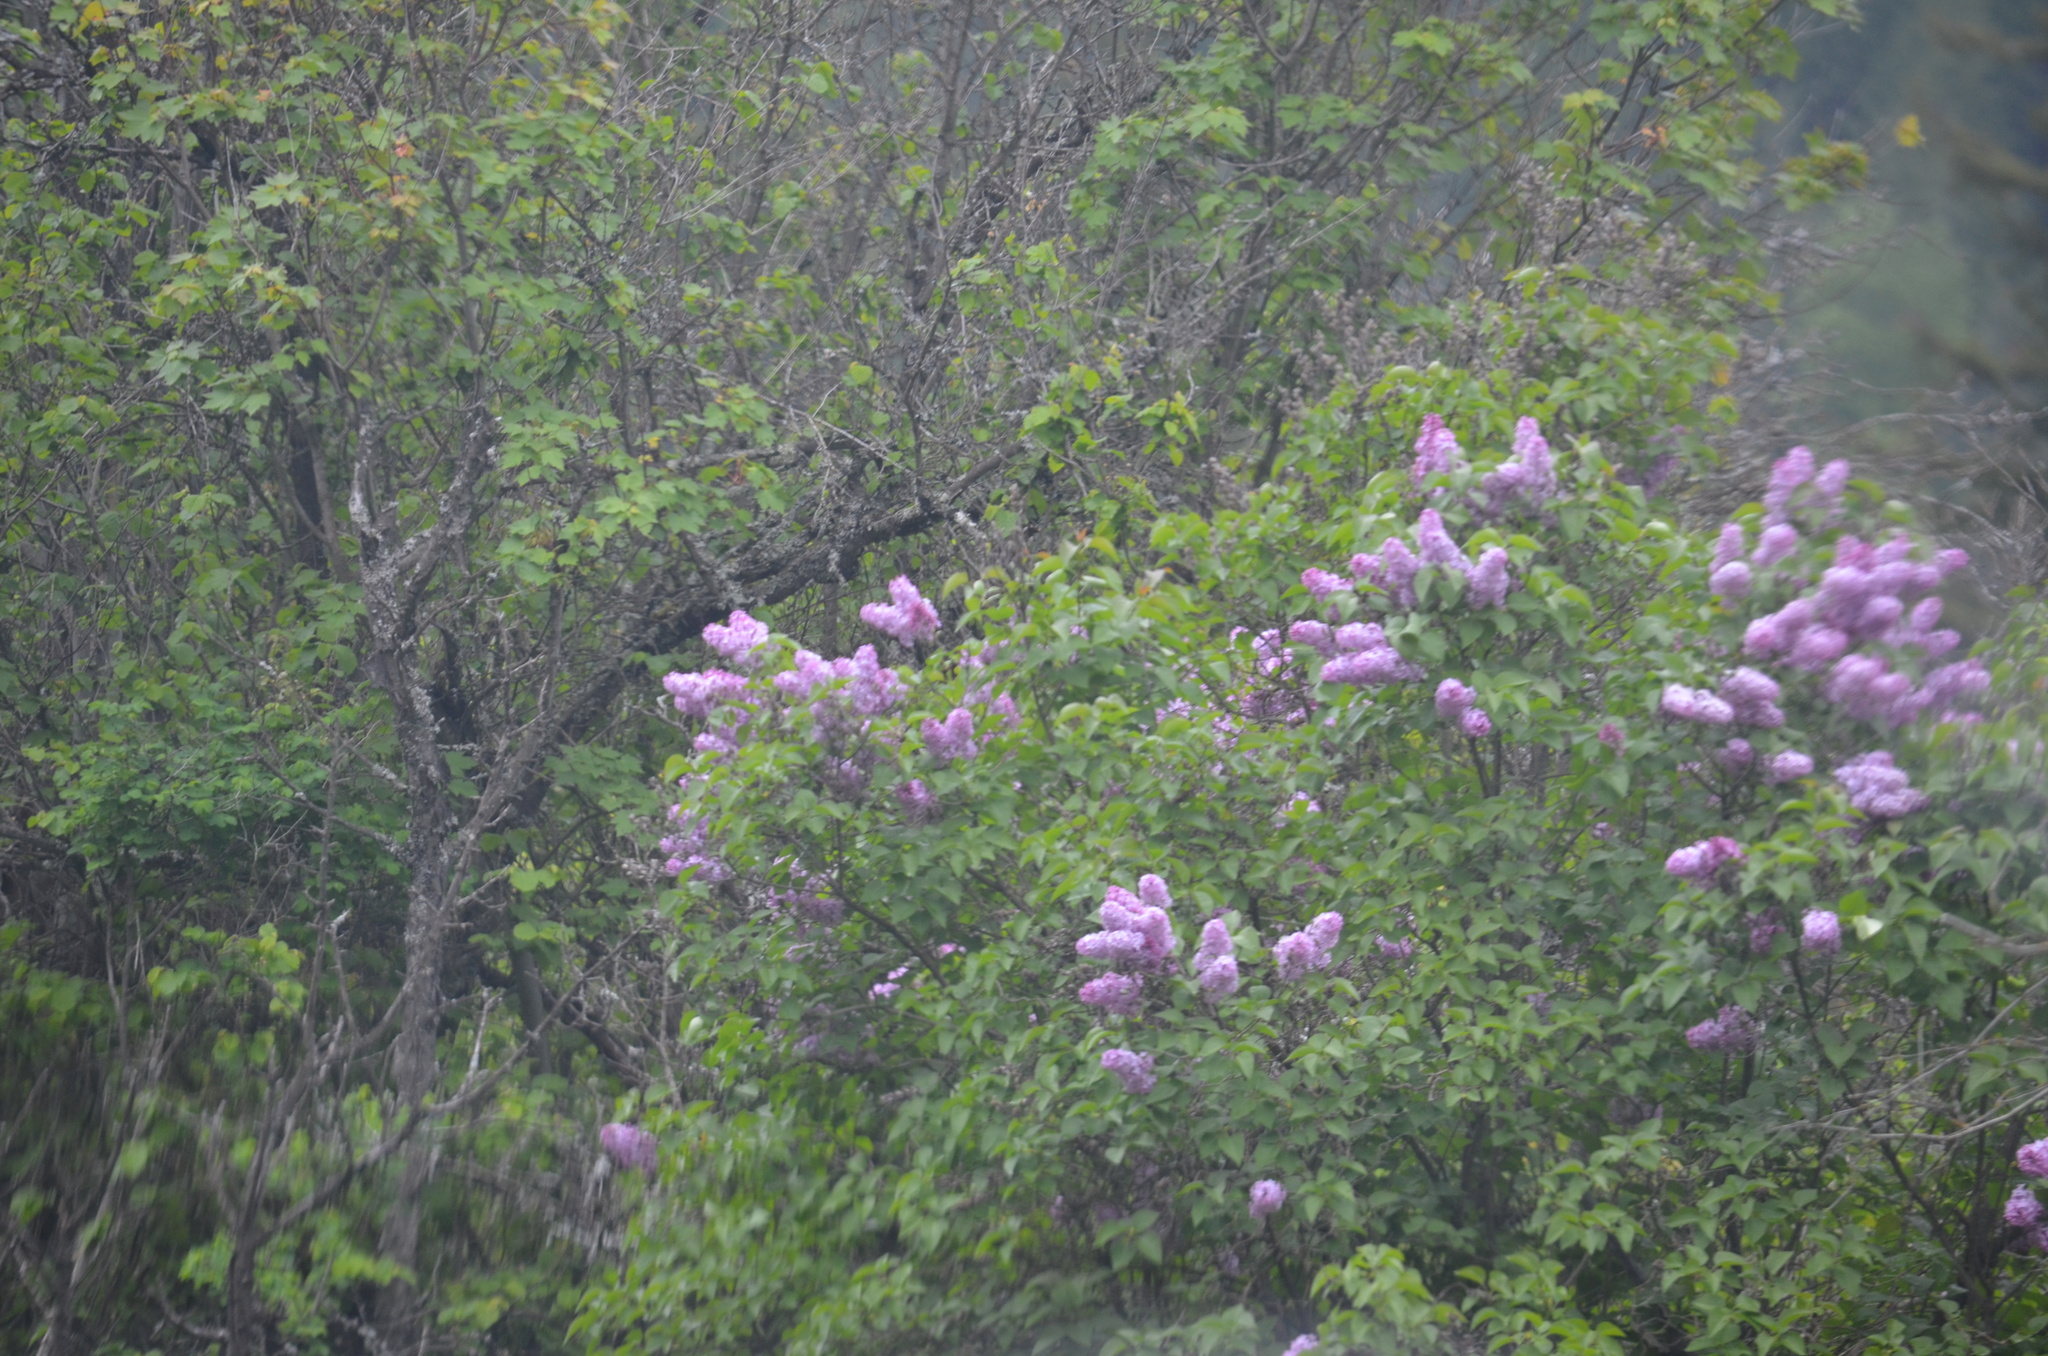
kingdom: Plantae
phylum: Tracheophyta
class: Magnoliopsida
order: Lamiales
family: Oleaceae
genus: Syringa
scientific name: Syringa vulgaris
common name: Common lilac
